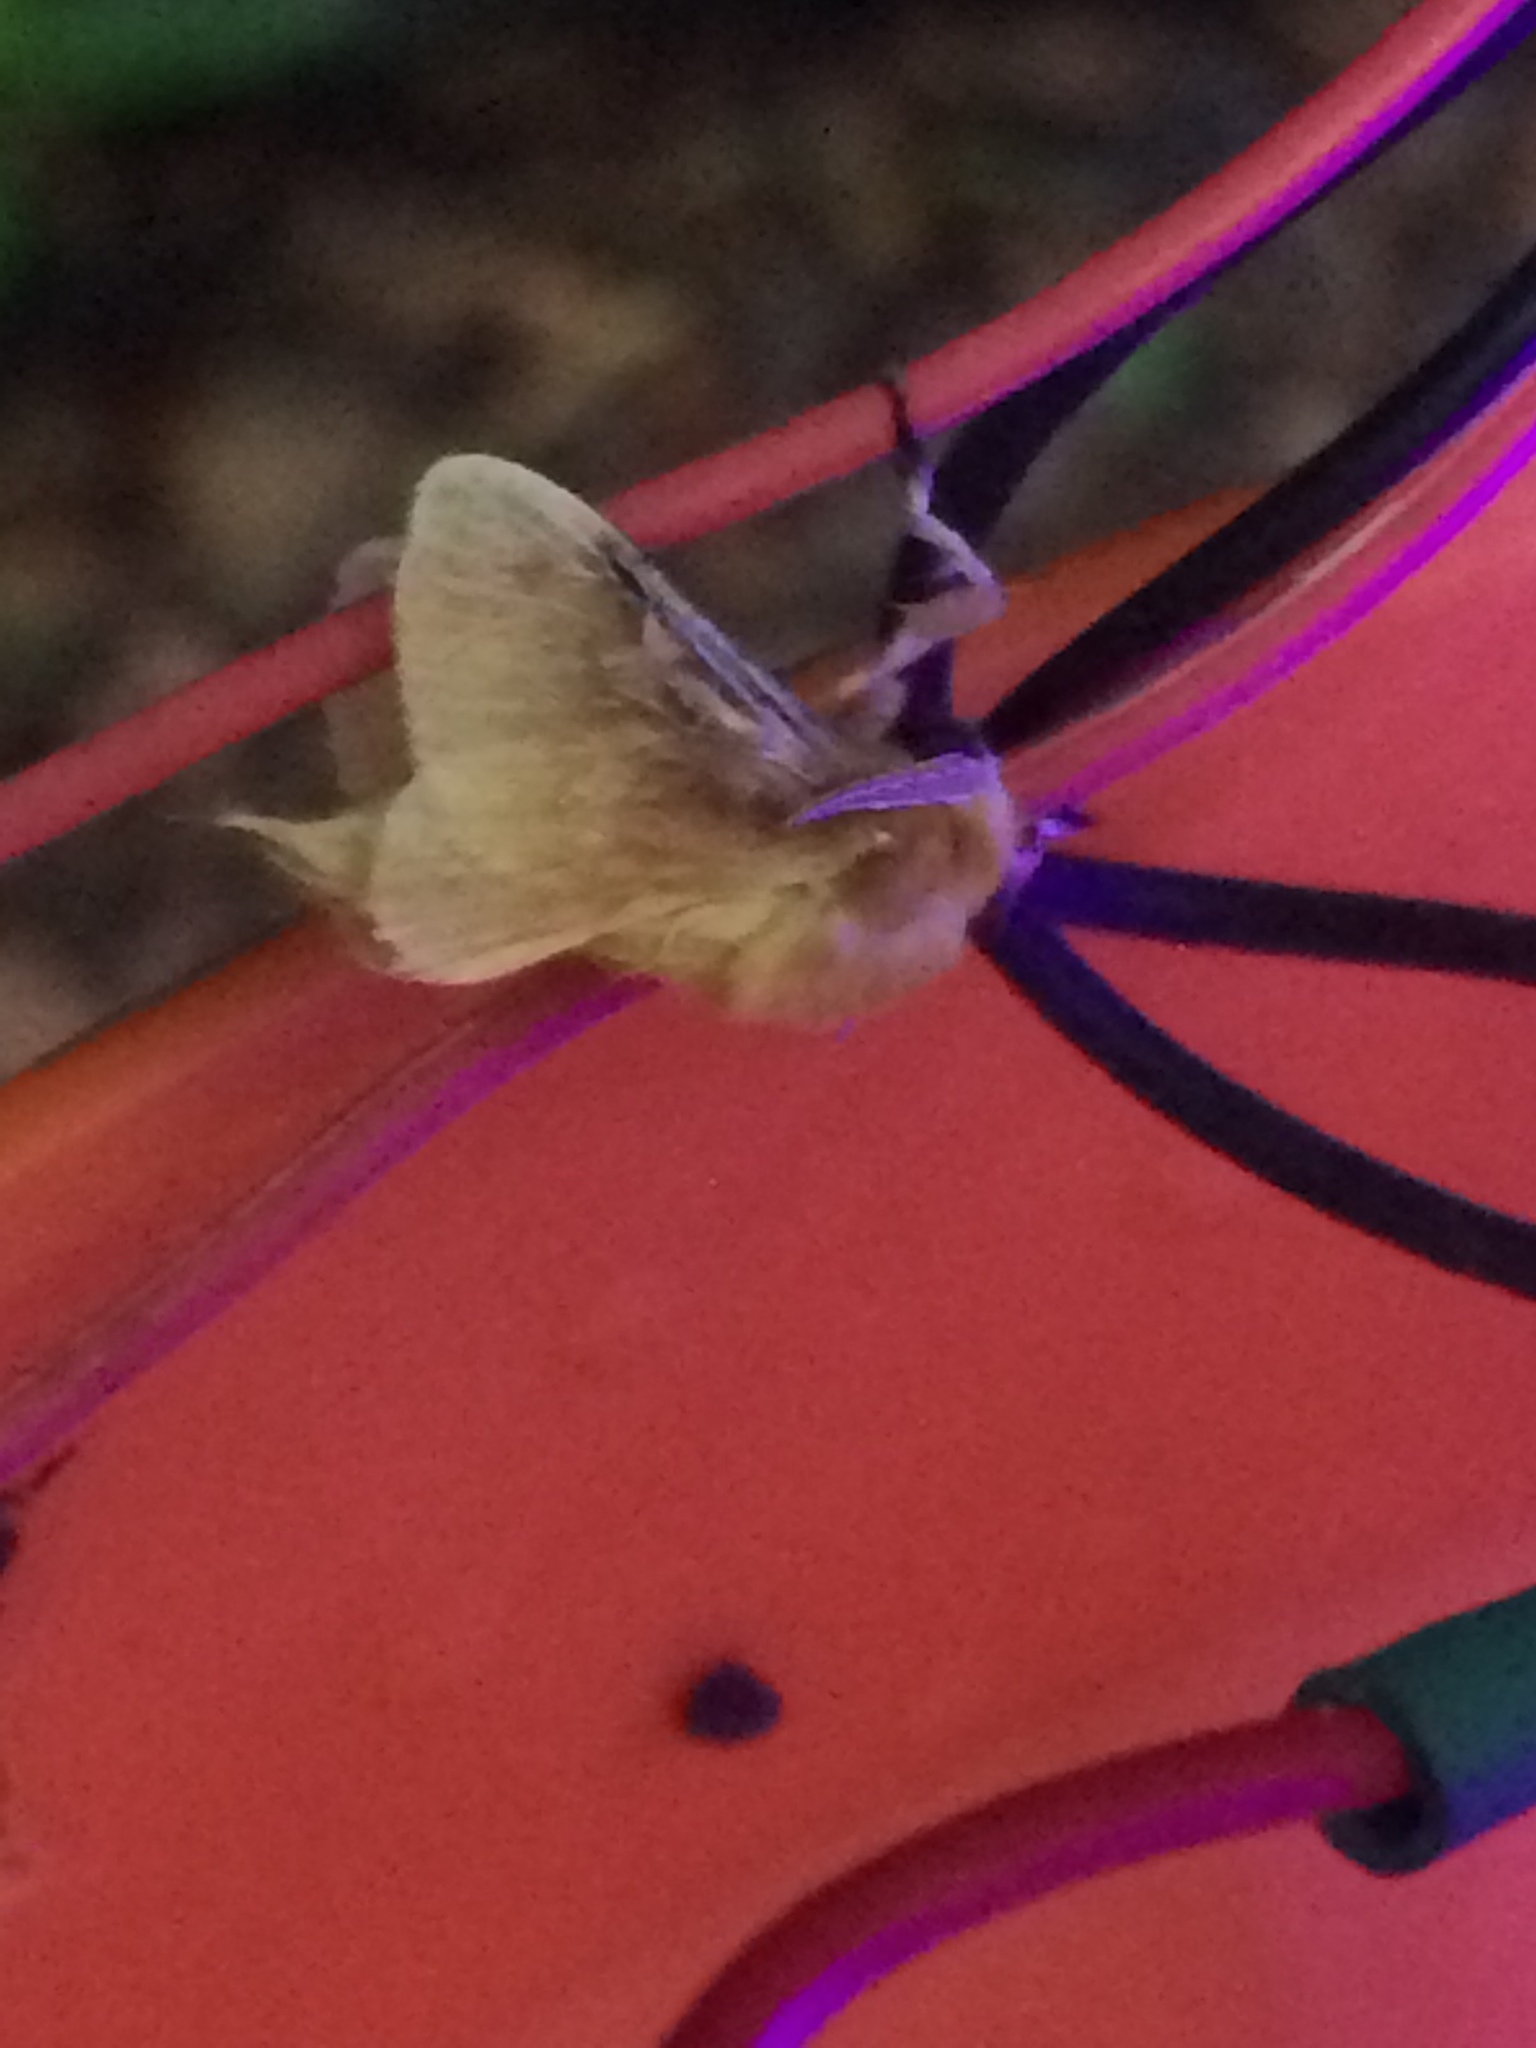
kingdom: Animalia
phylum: Arthropoda
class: Insecta
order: Lepidoptera
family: Megalopygidae
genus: Megalopyge
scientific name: Megalopyge opercularis
